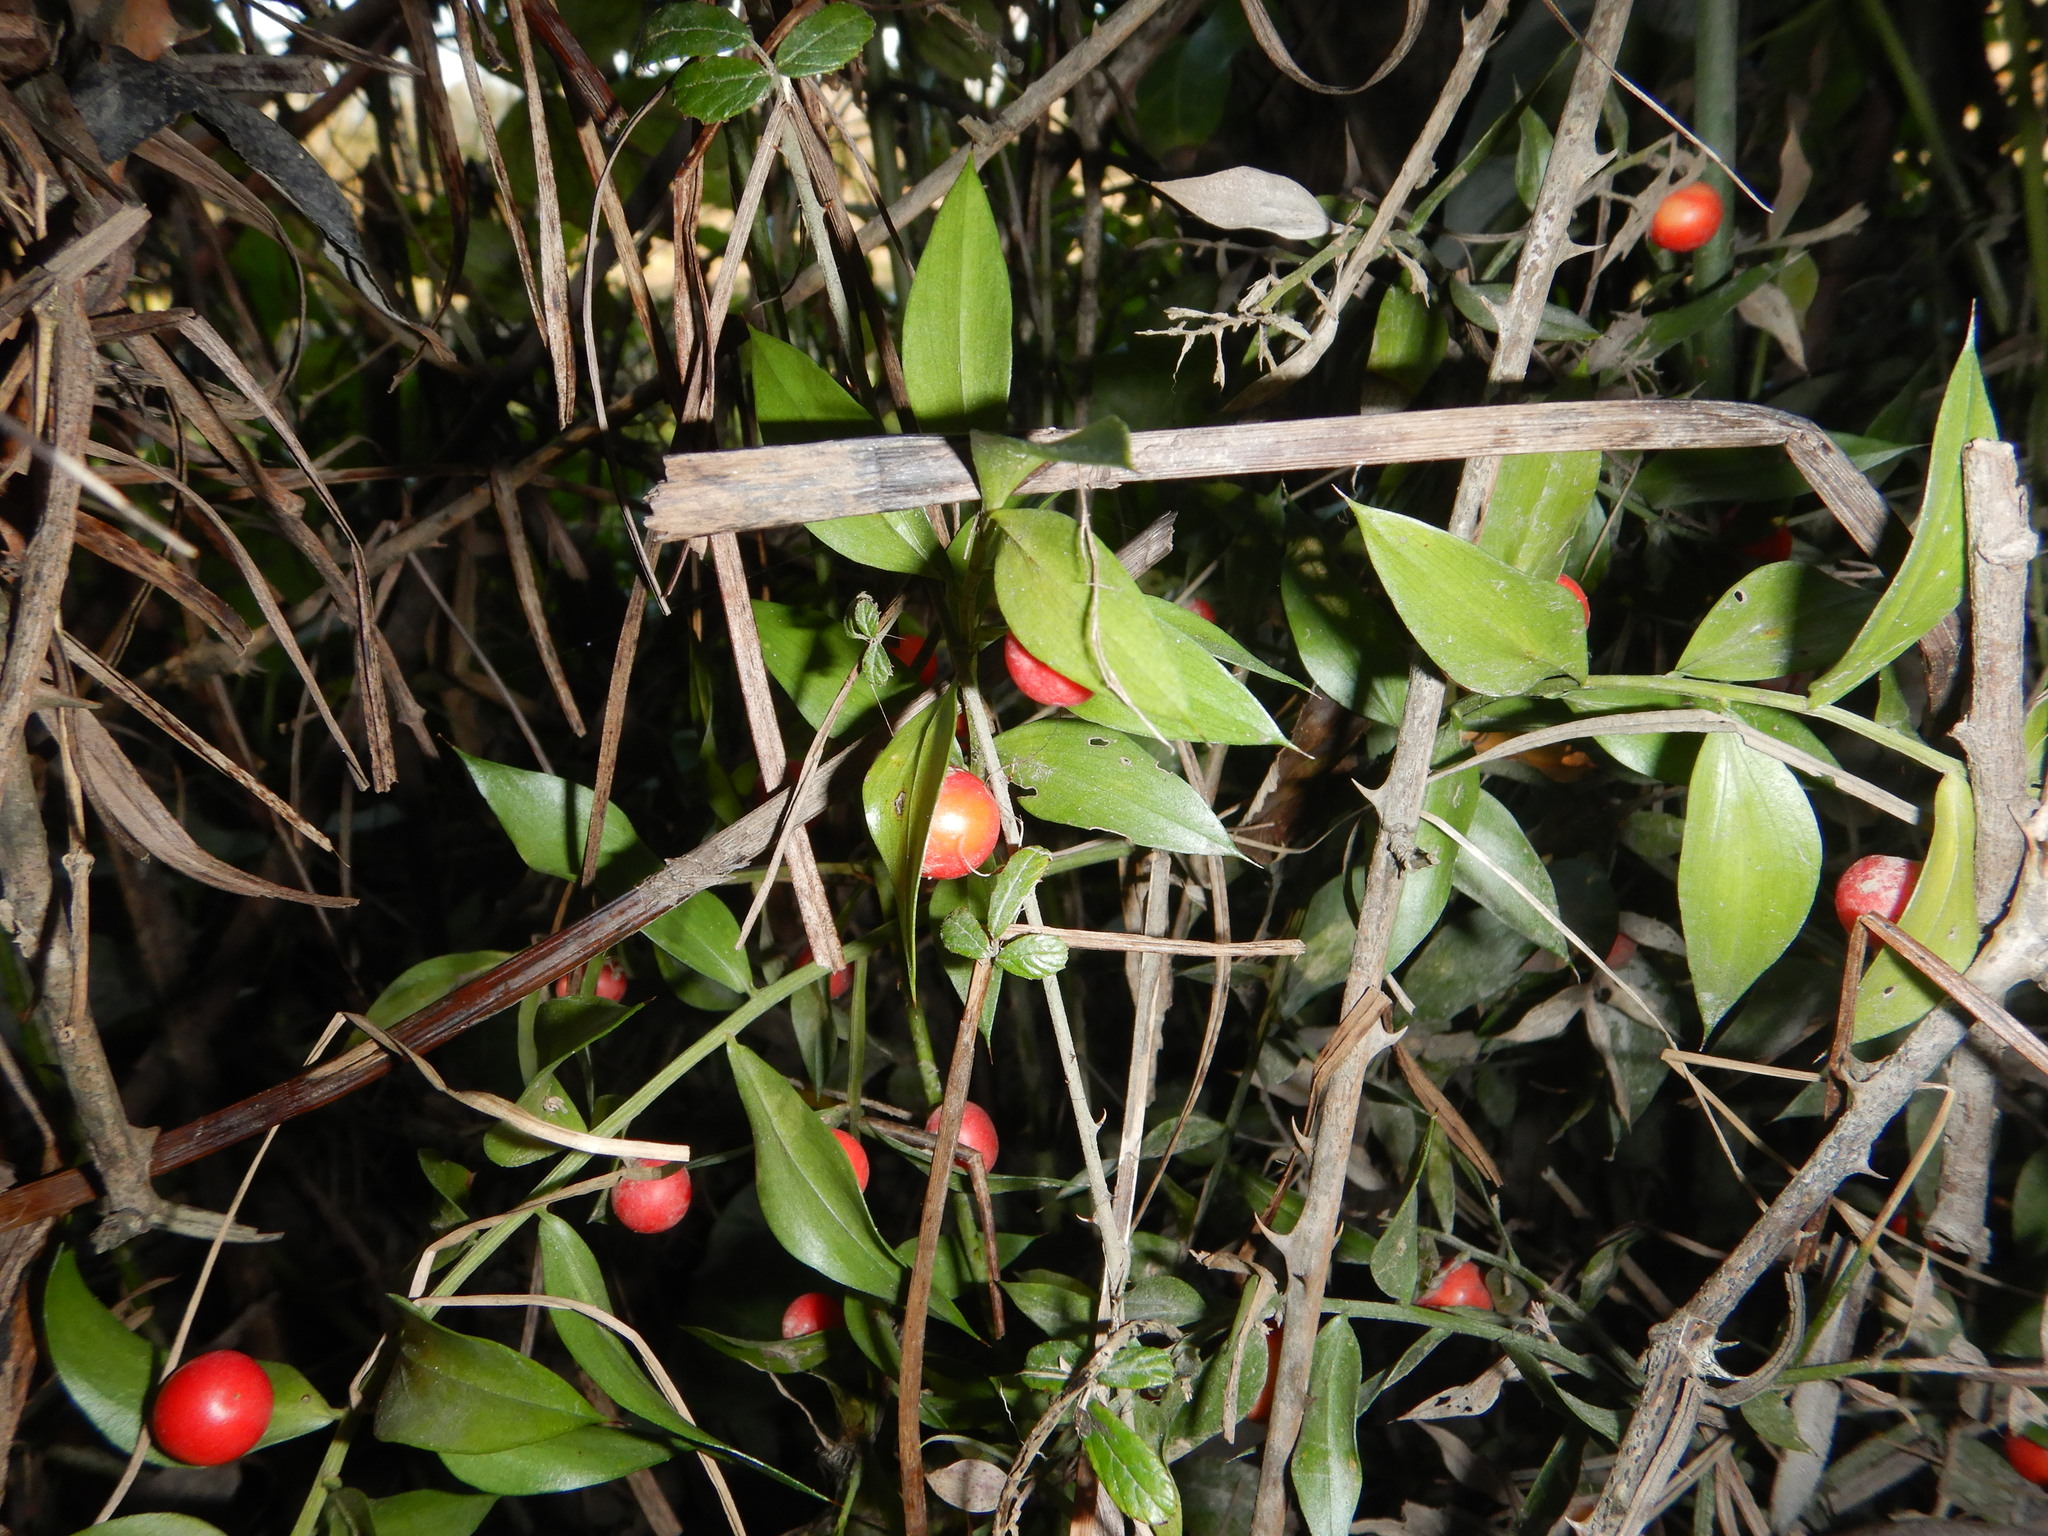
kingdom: Plantae
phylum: Tracheophyta
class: Liliopsida
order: Asparagales
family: Asparagaceae
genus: Ruscus
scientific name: Ruscus aculeatus
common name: Butcher's-broom
